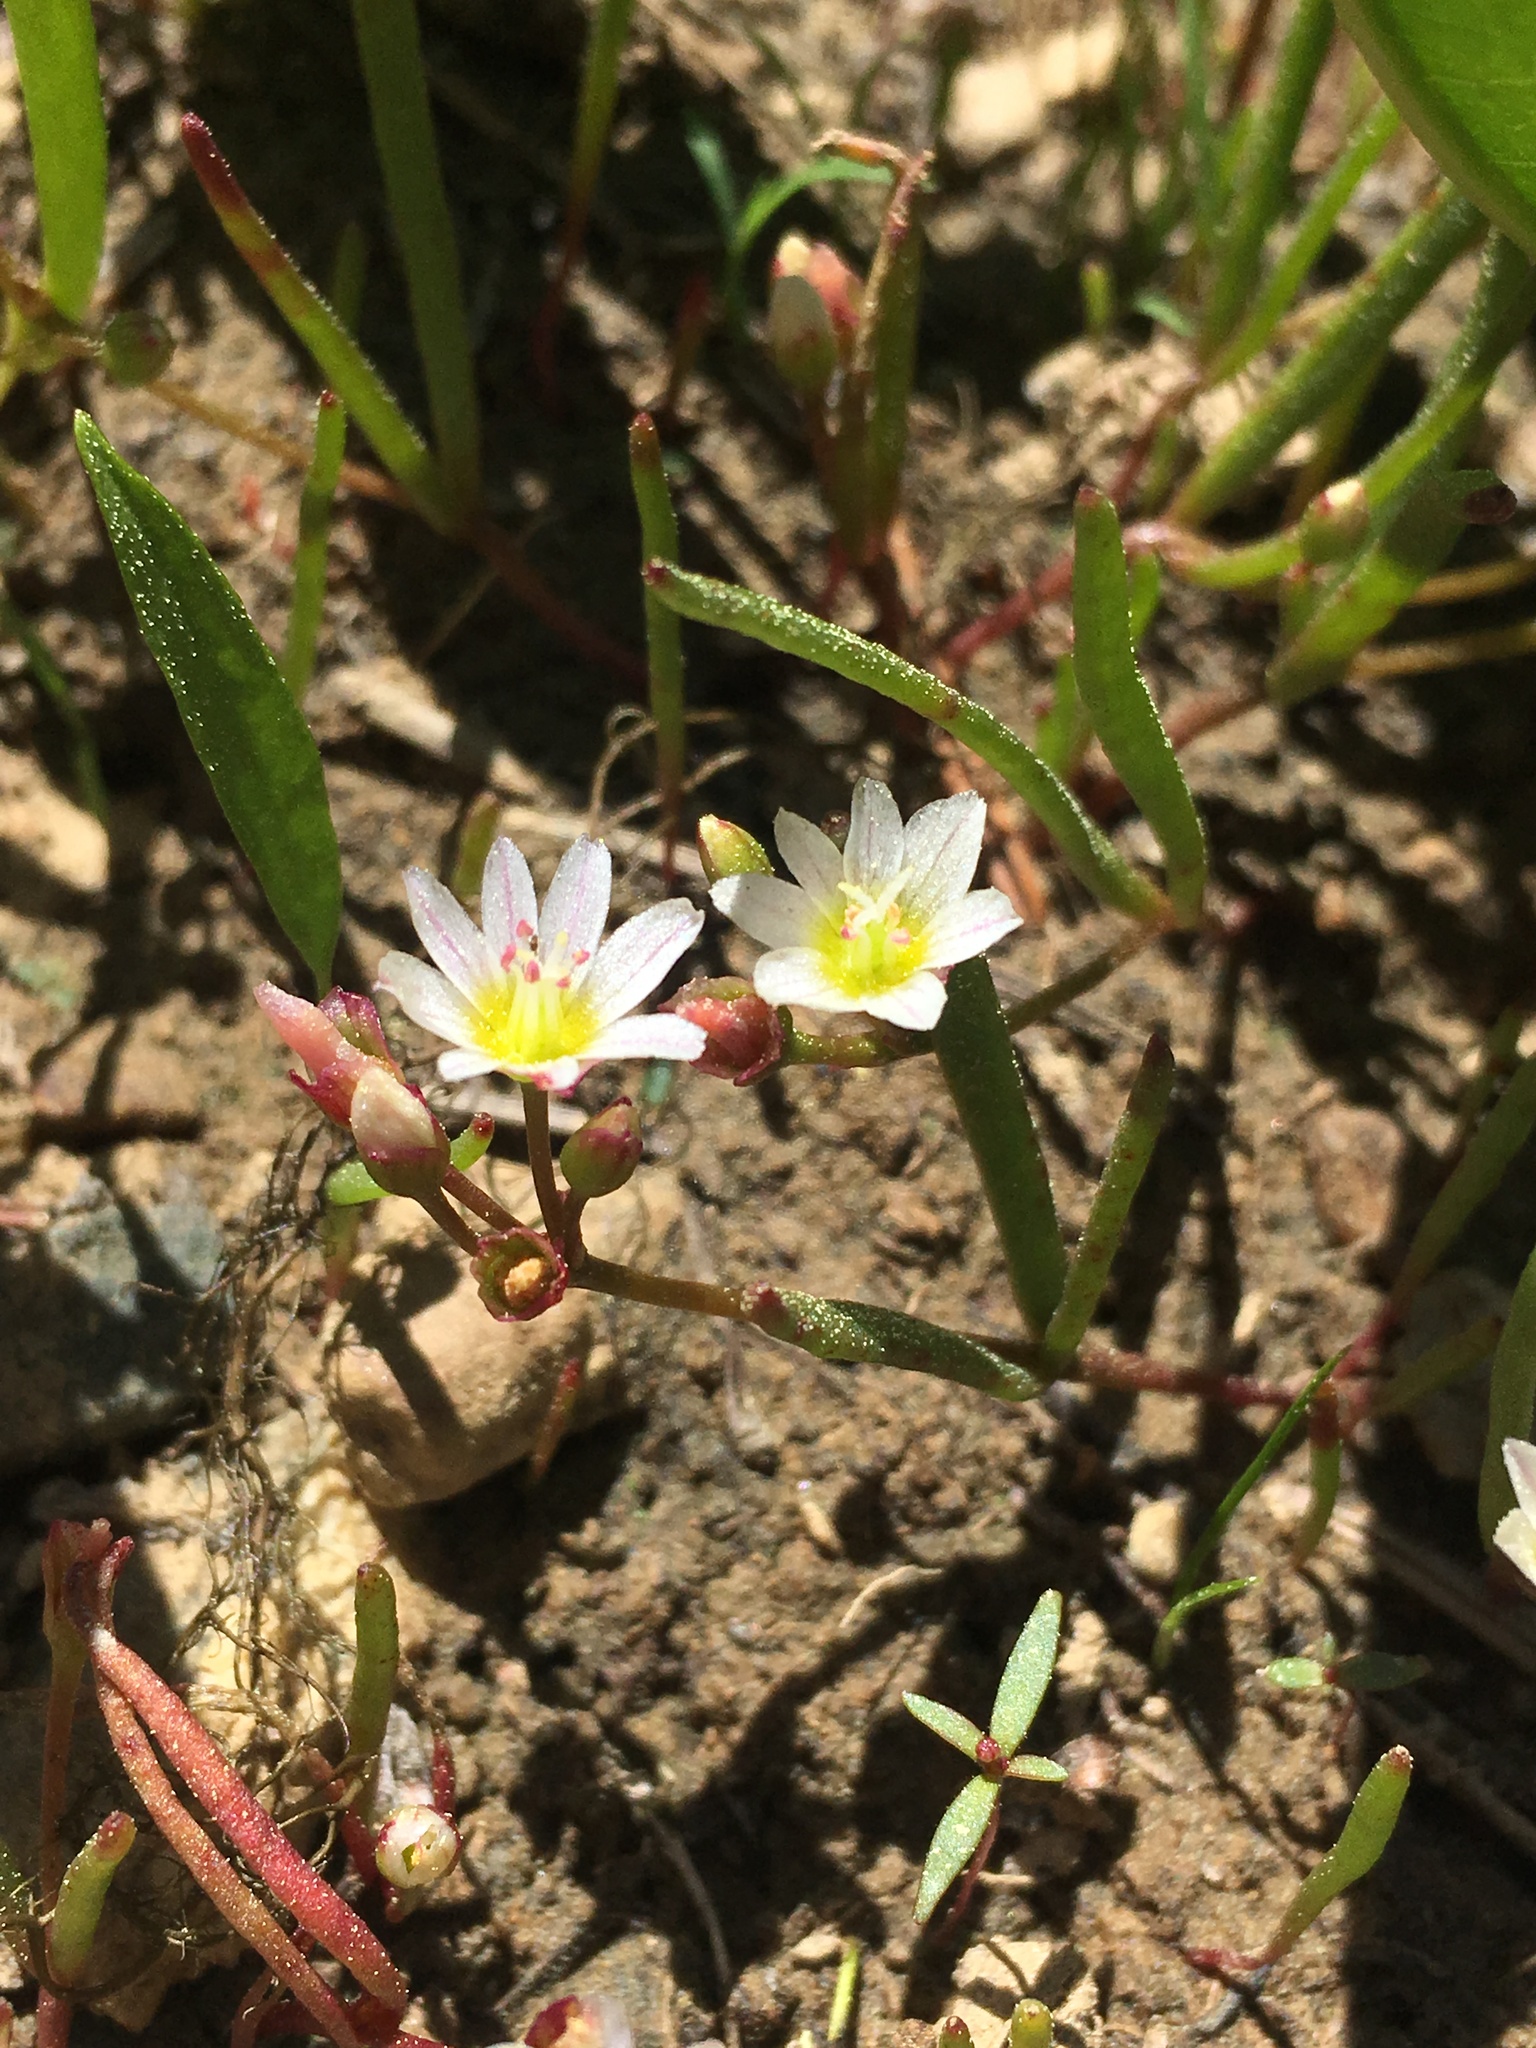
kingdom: Plantae
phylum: Tracheophyta
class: Magnoliopsida
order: Caryophyllales
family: Montiaceae
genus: Lewisia
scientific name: Lewisia triphylla
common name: Three-leaved bitterroot
